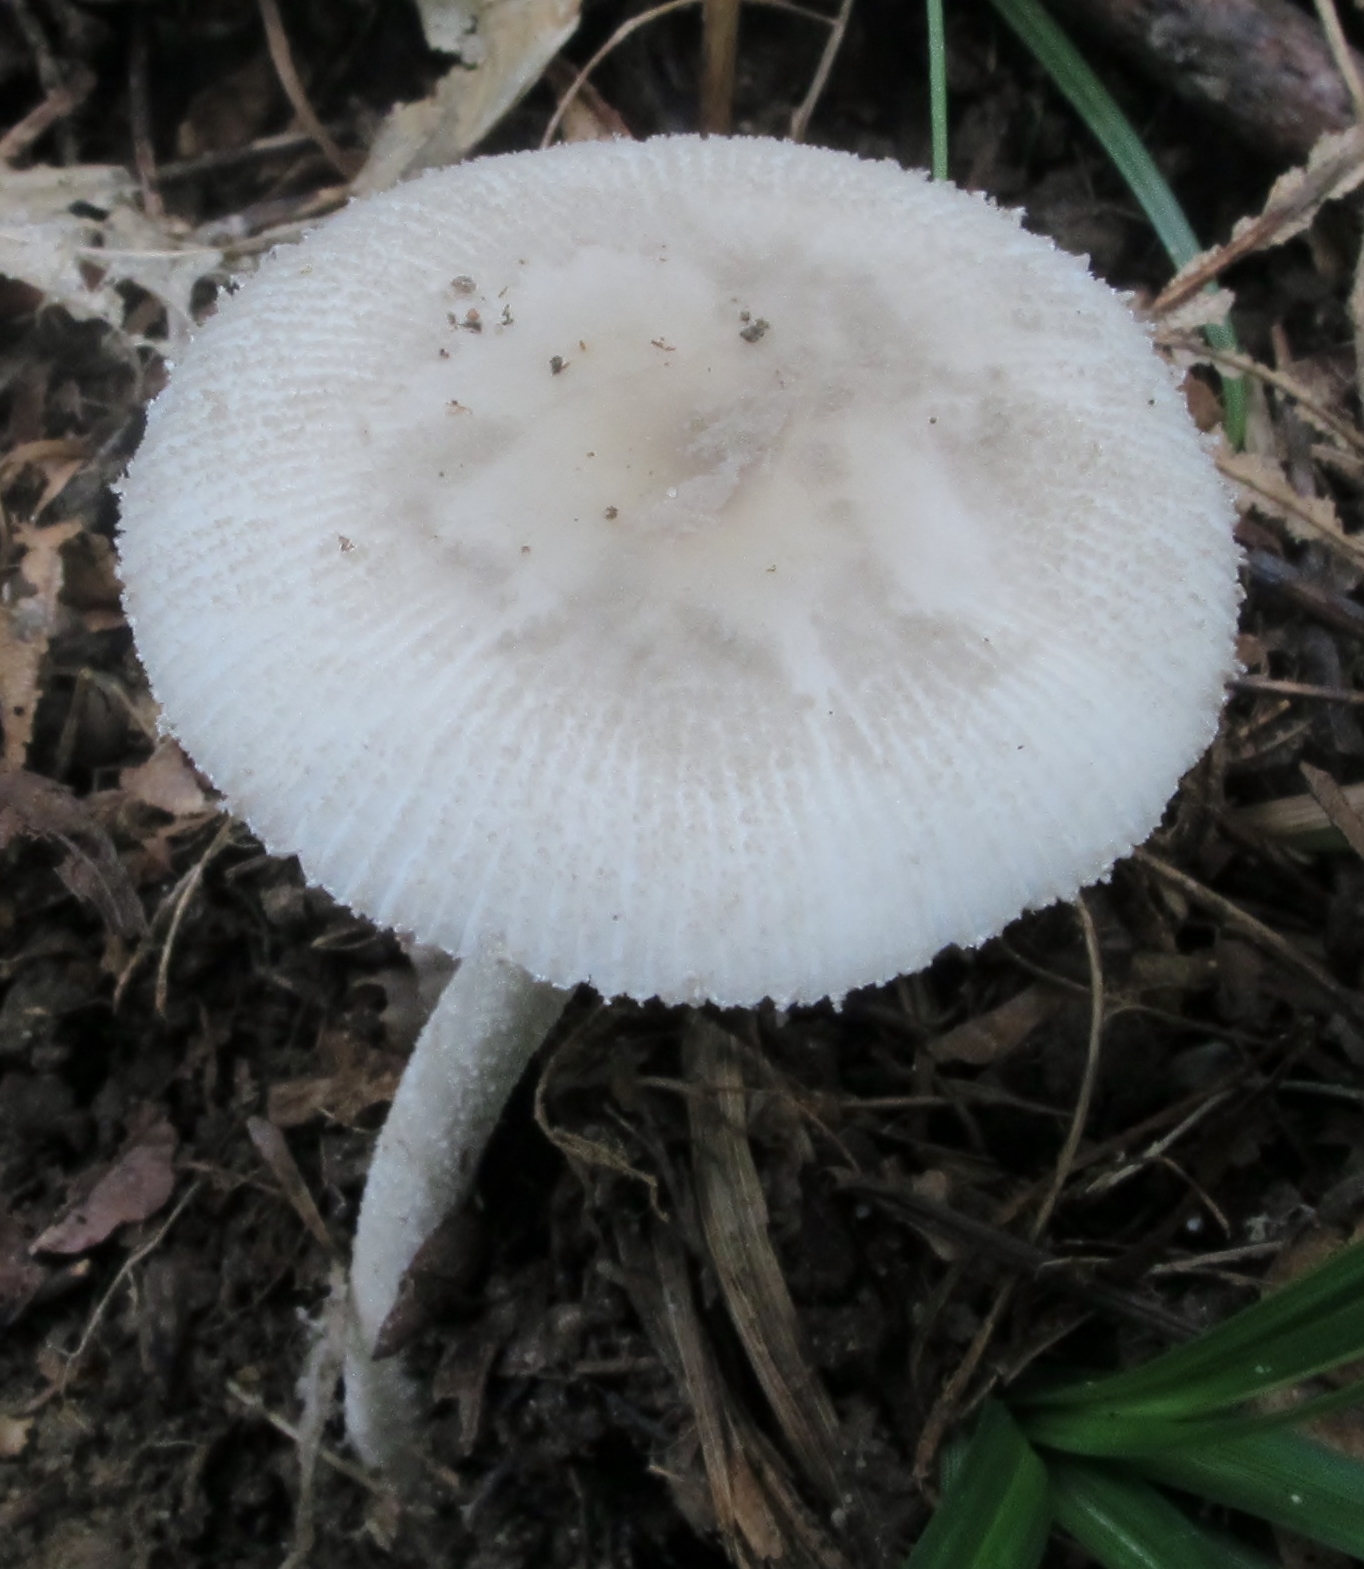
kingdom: Fungi
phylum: Basidiomycota
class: Agaricomycetes
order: Agaricales
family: Amanitaceae
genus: Amanita
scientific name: Amanita farinosa
